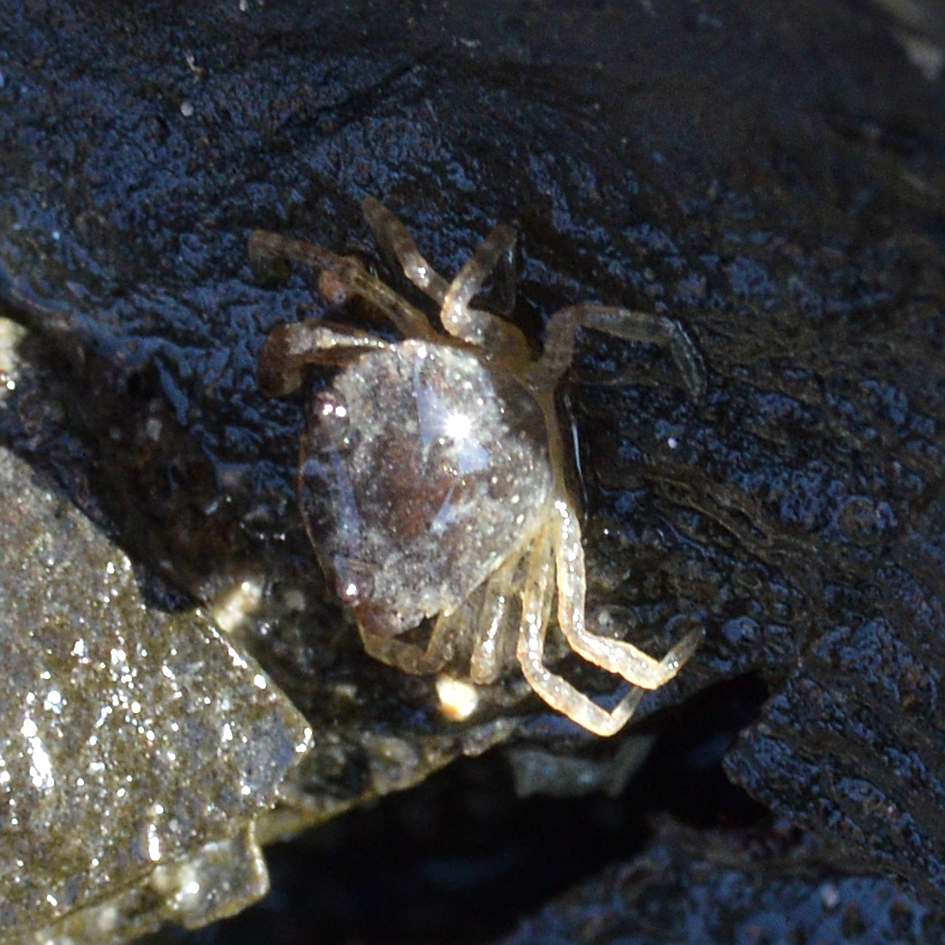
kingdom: Animalia
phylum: Arthropoda
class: Malacostraca
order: Decapoda
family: Carcinidae
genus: Carcinus
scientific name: Carcinus maenas
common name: European green crab
